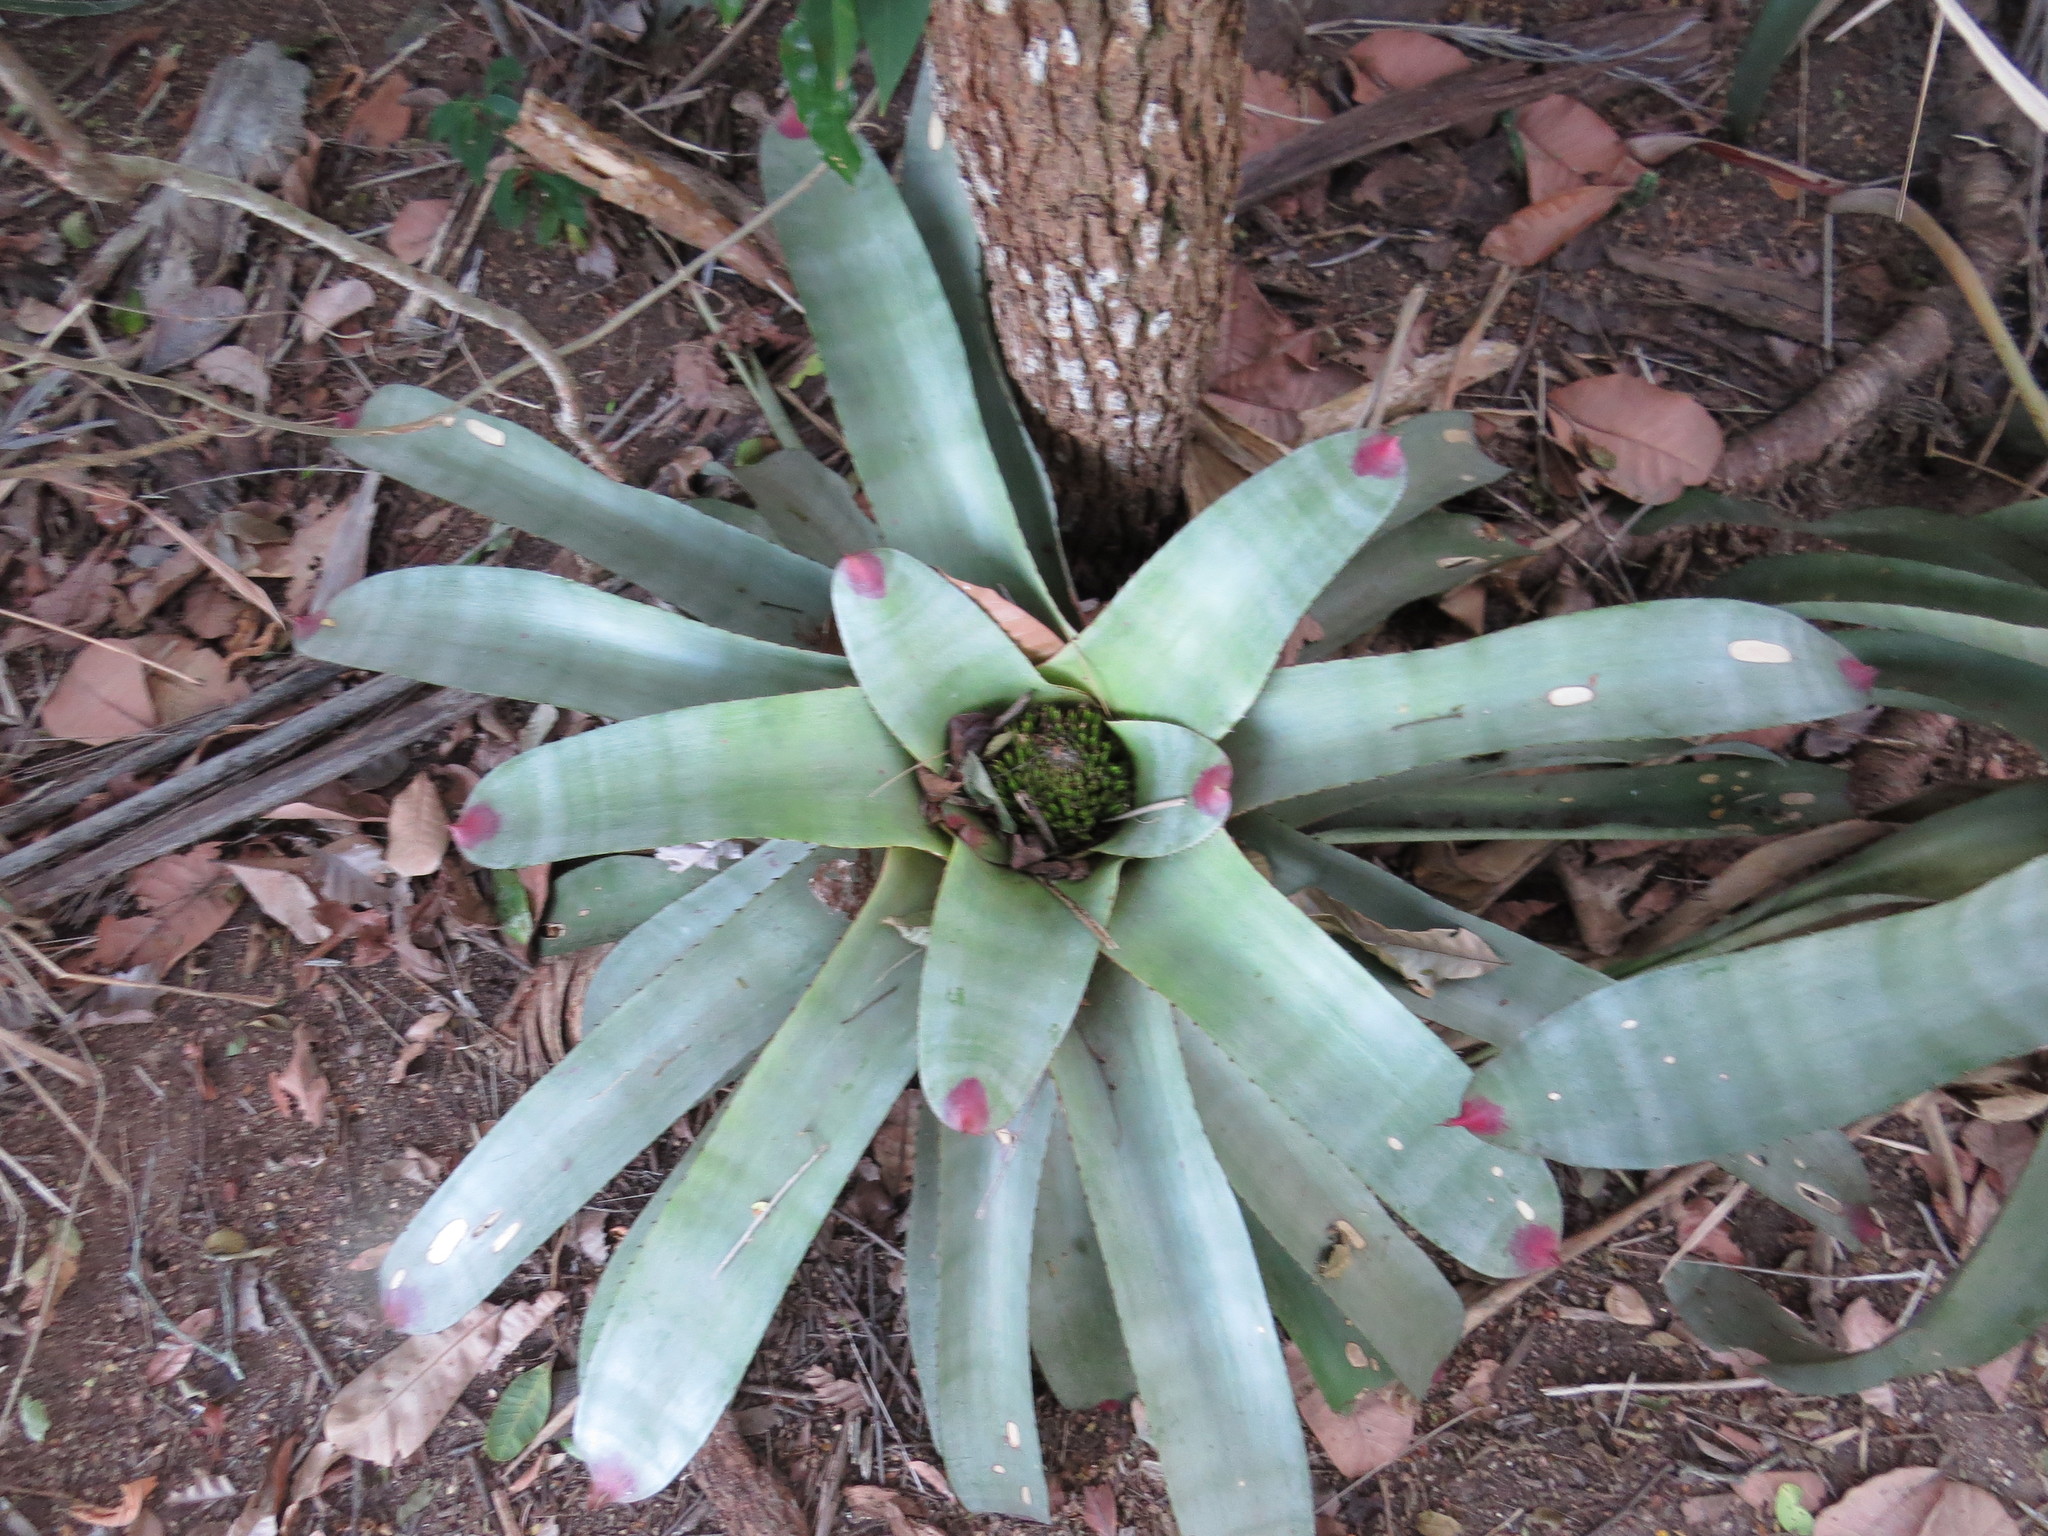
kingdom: Plantae
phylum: Tracheophyta
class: Liliopsida
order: Poales
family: Bromeliaceae
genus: Neoregelia
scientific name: Neoregelia cruenta
